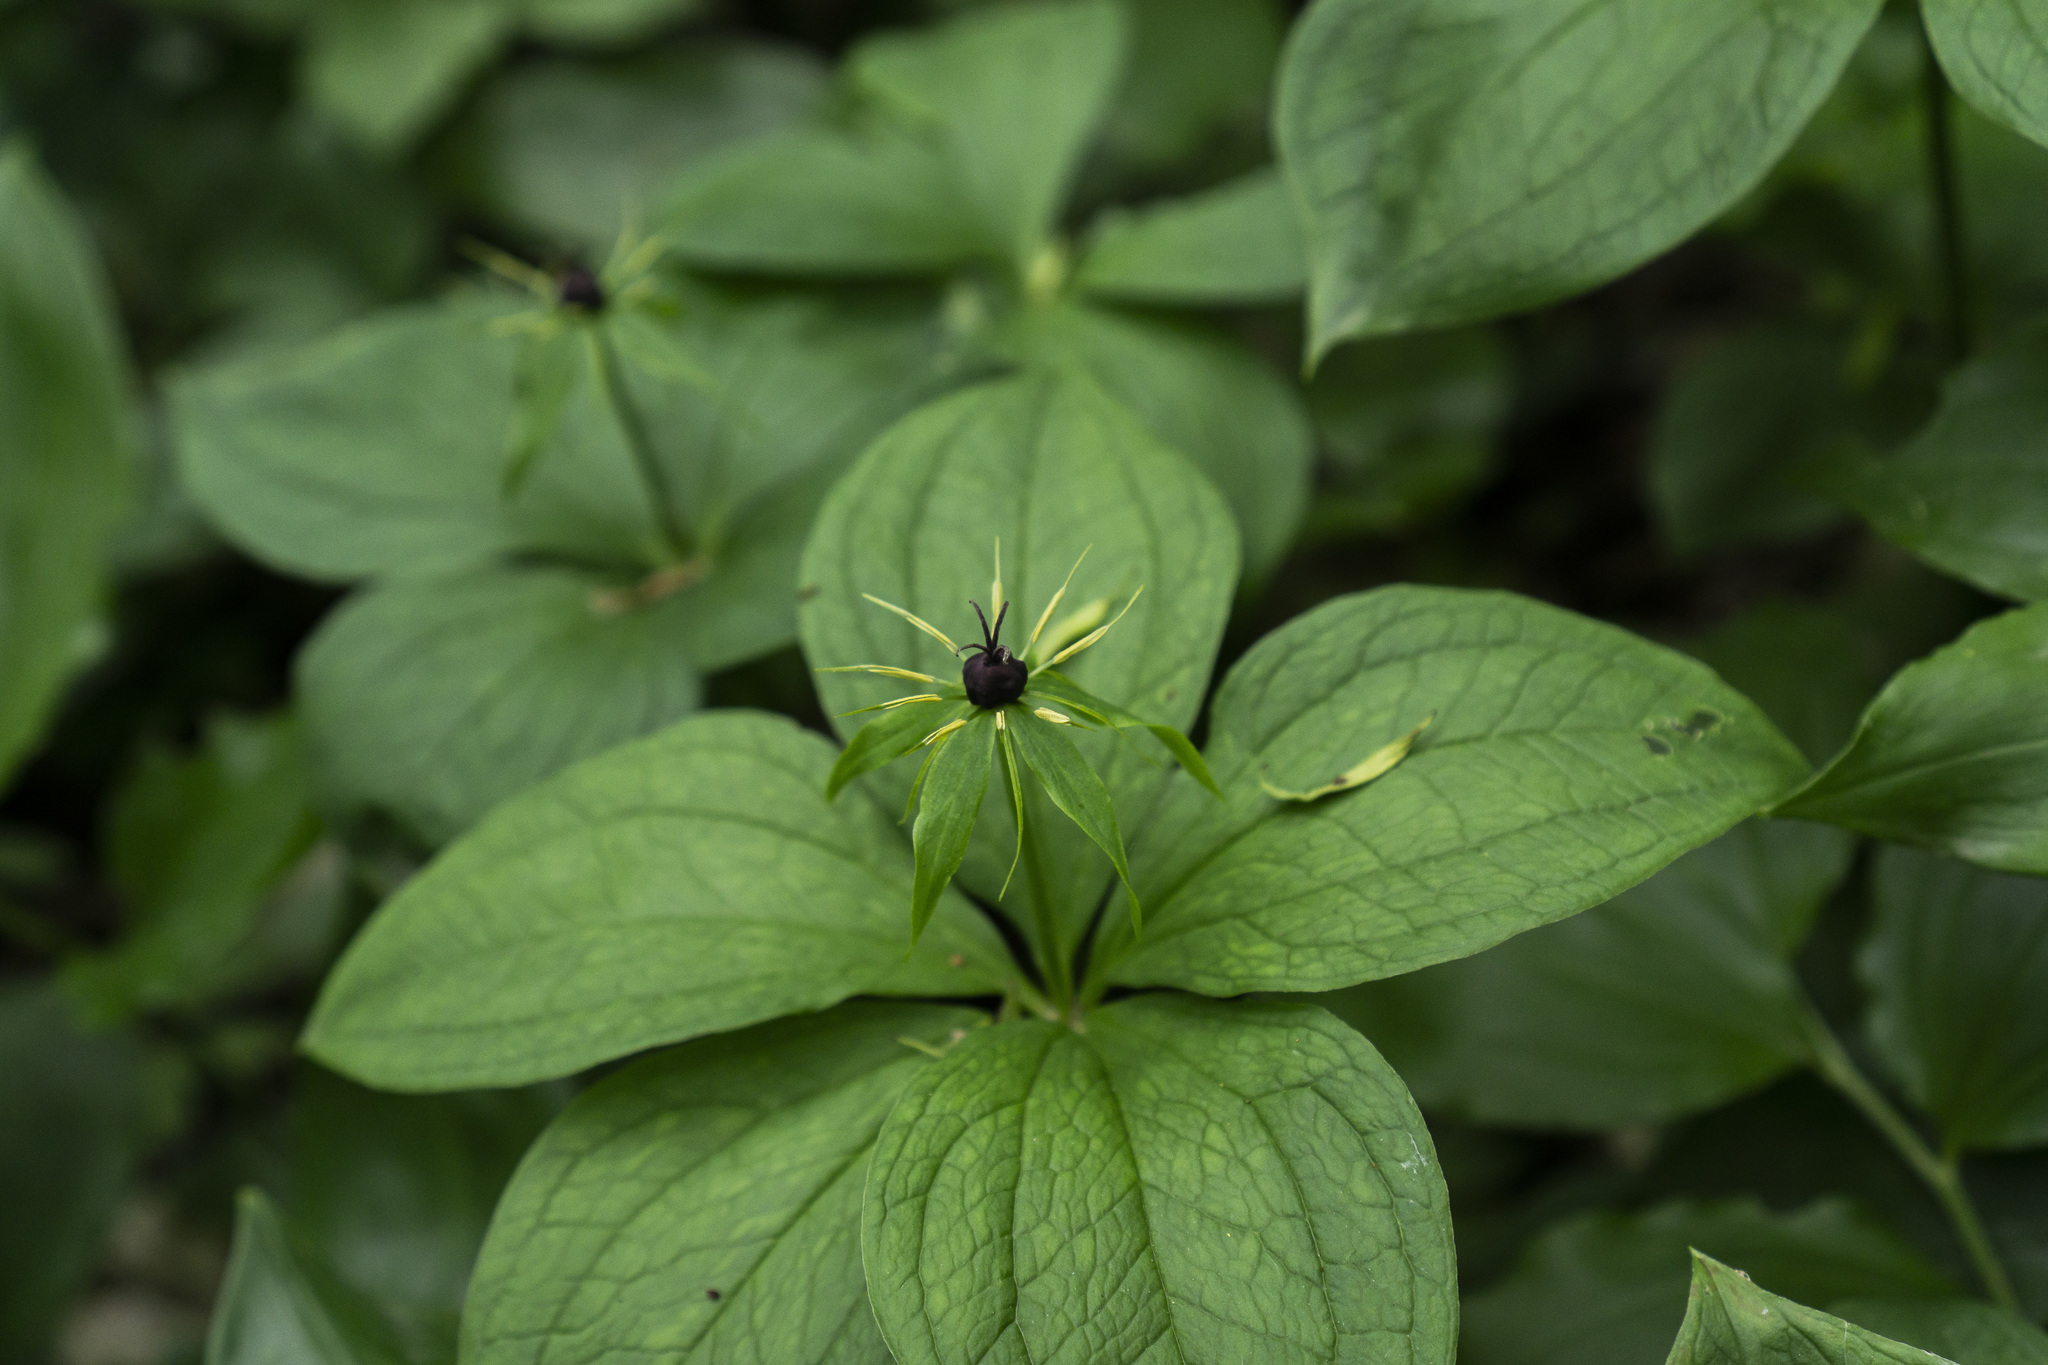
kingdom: Plantae
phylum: Tracheophyta
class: Liliopsida
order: Liliales
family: Melanthiaceae
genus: Paris
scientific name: Paris quadrifolia
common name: Herb-paris
